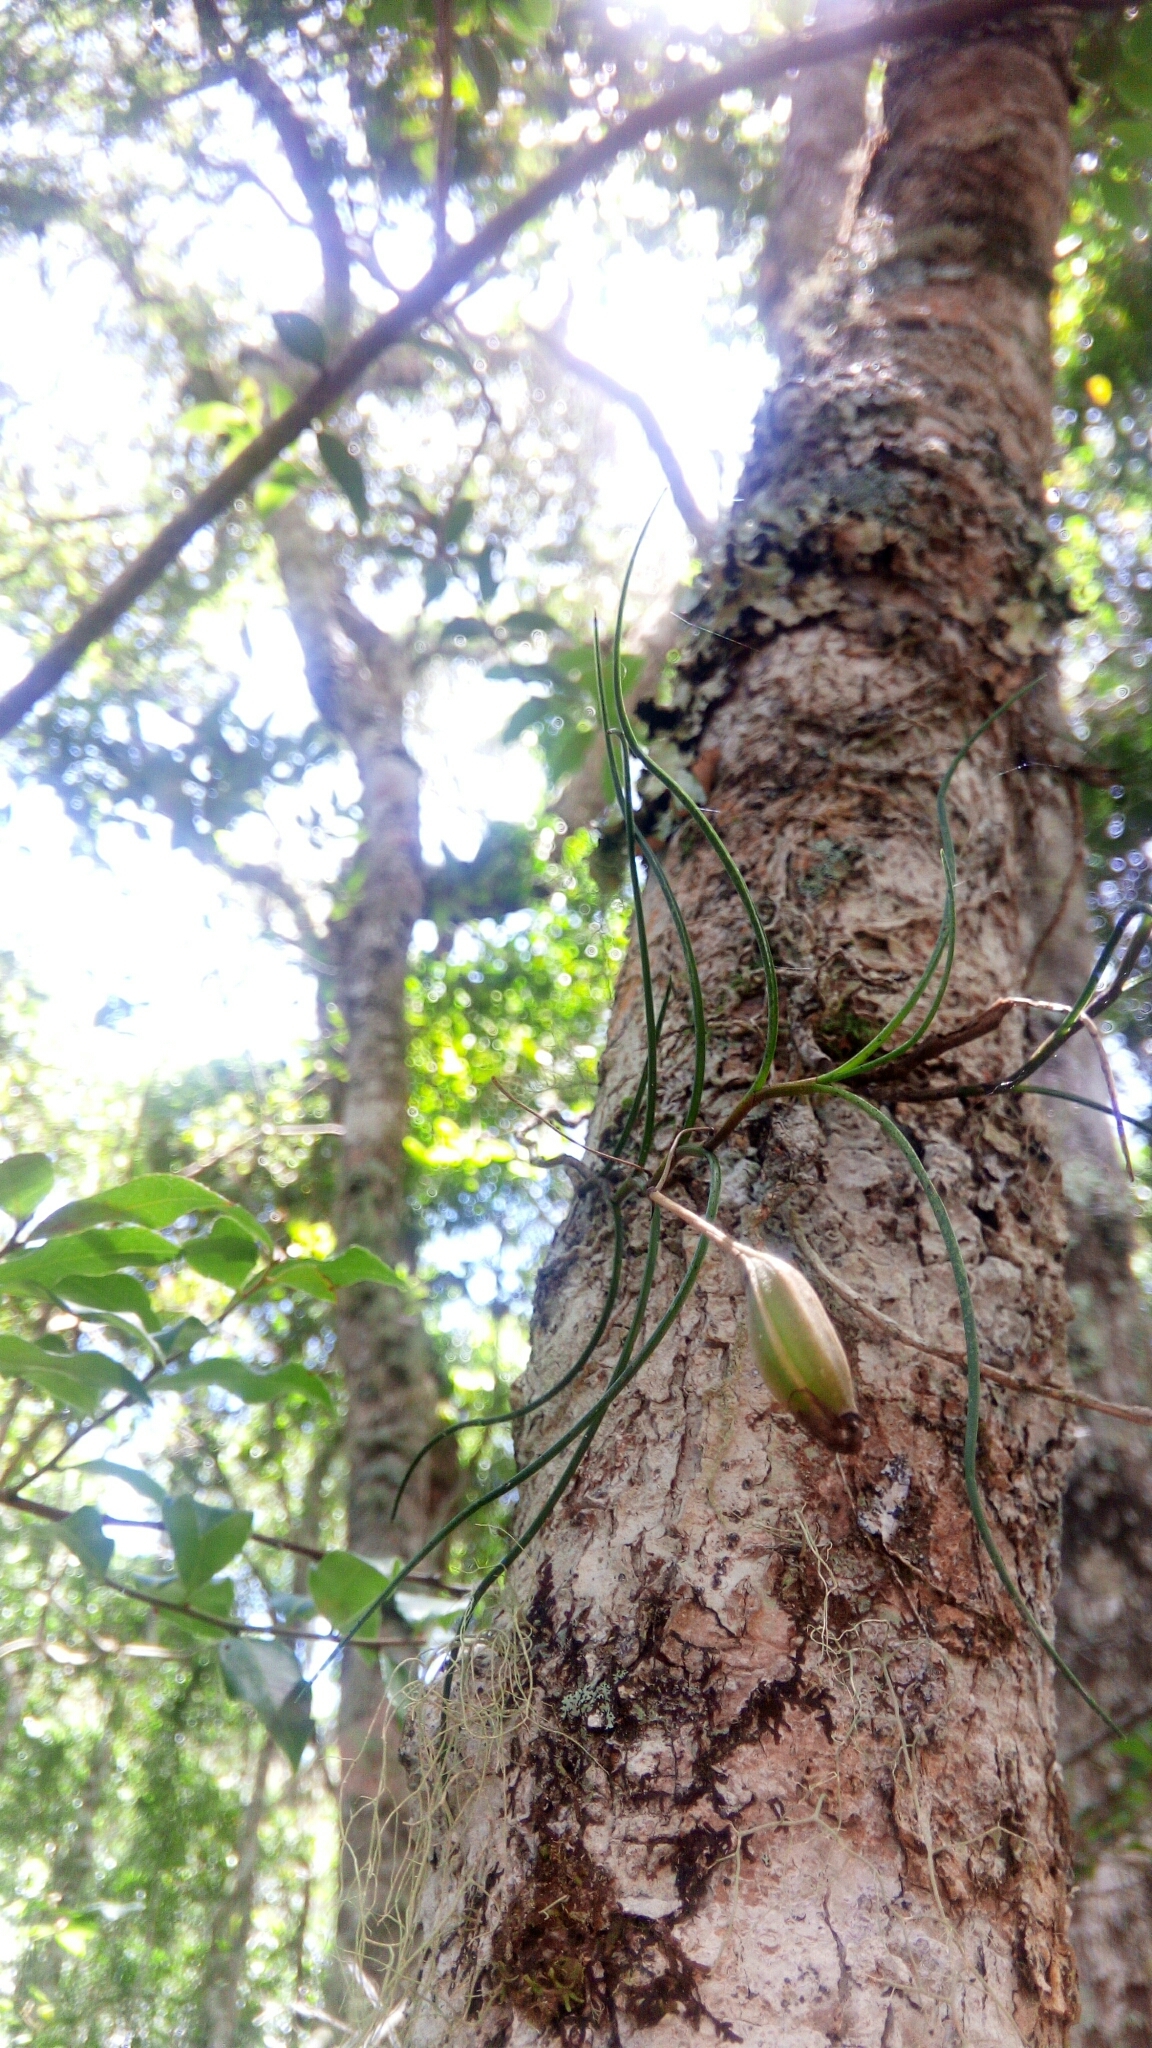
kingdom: Plantae
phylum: Tracheophyta
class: Liliopsida
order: Asparagales
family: Orchidaceae
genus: Angraecum
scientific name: Angraecum linearifolium
